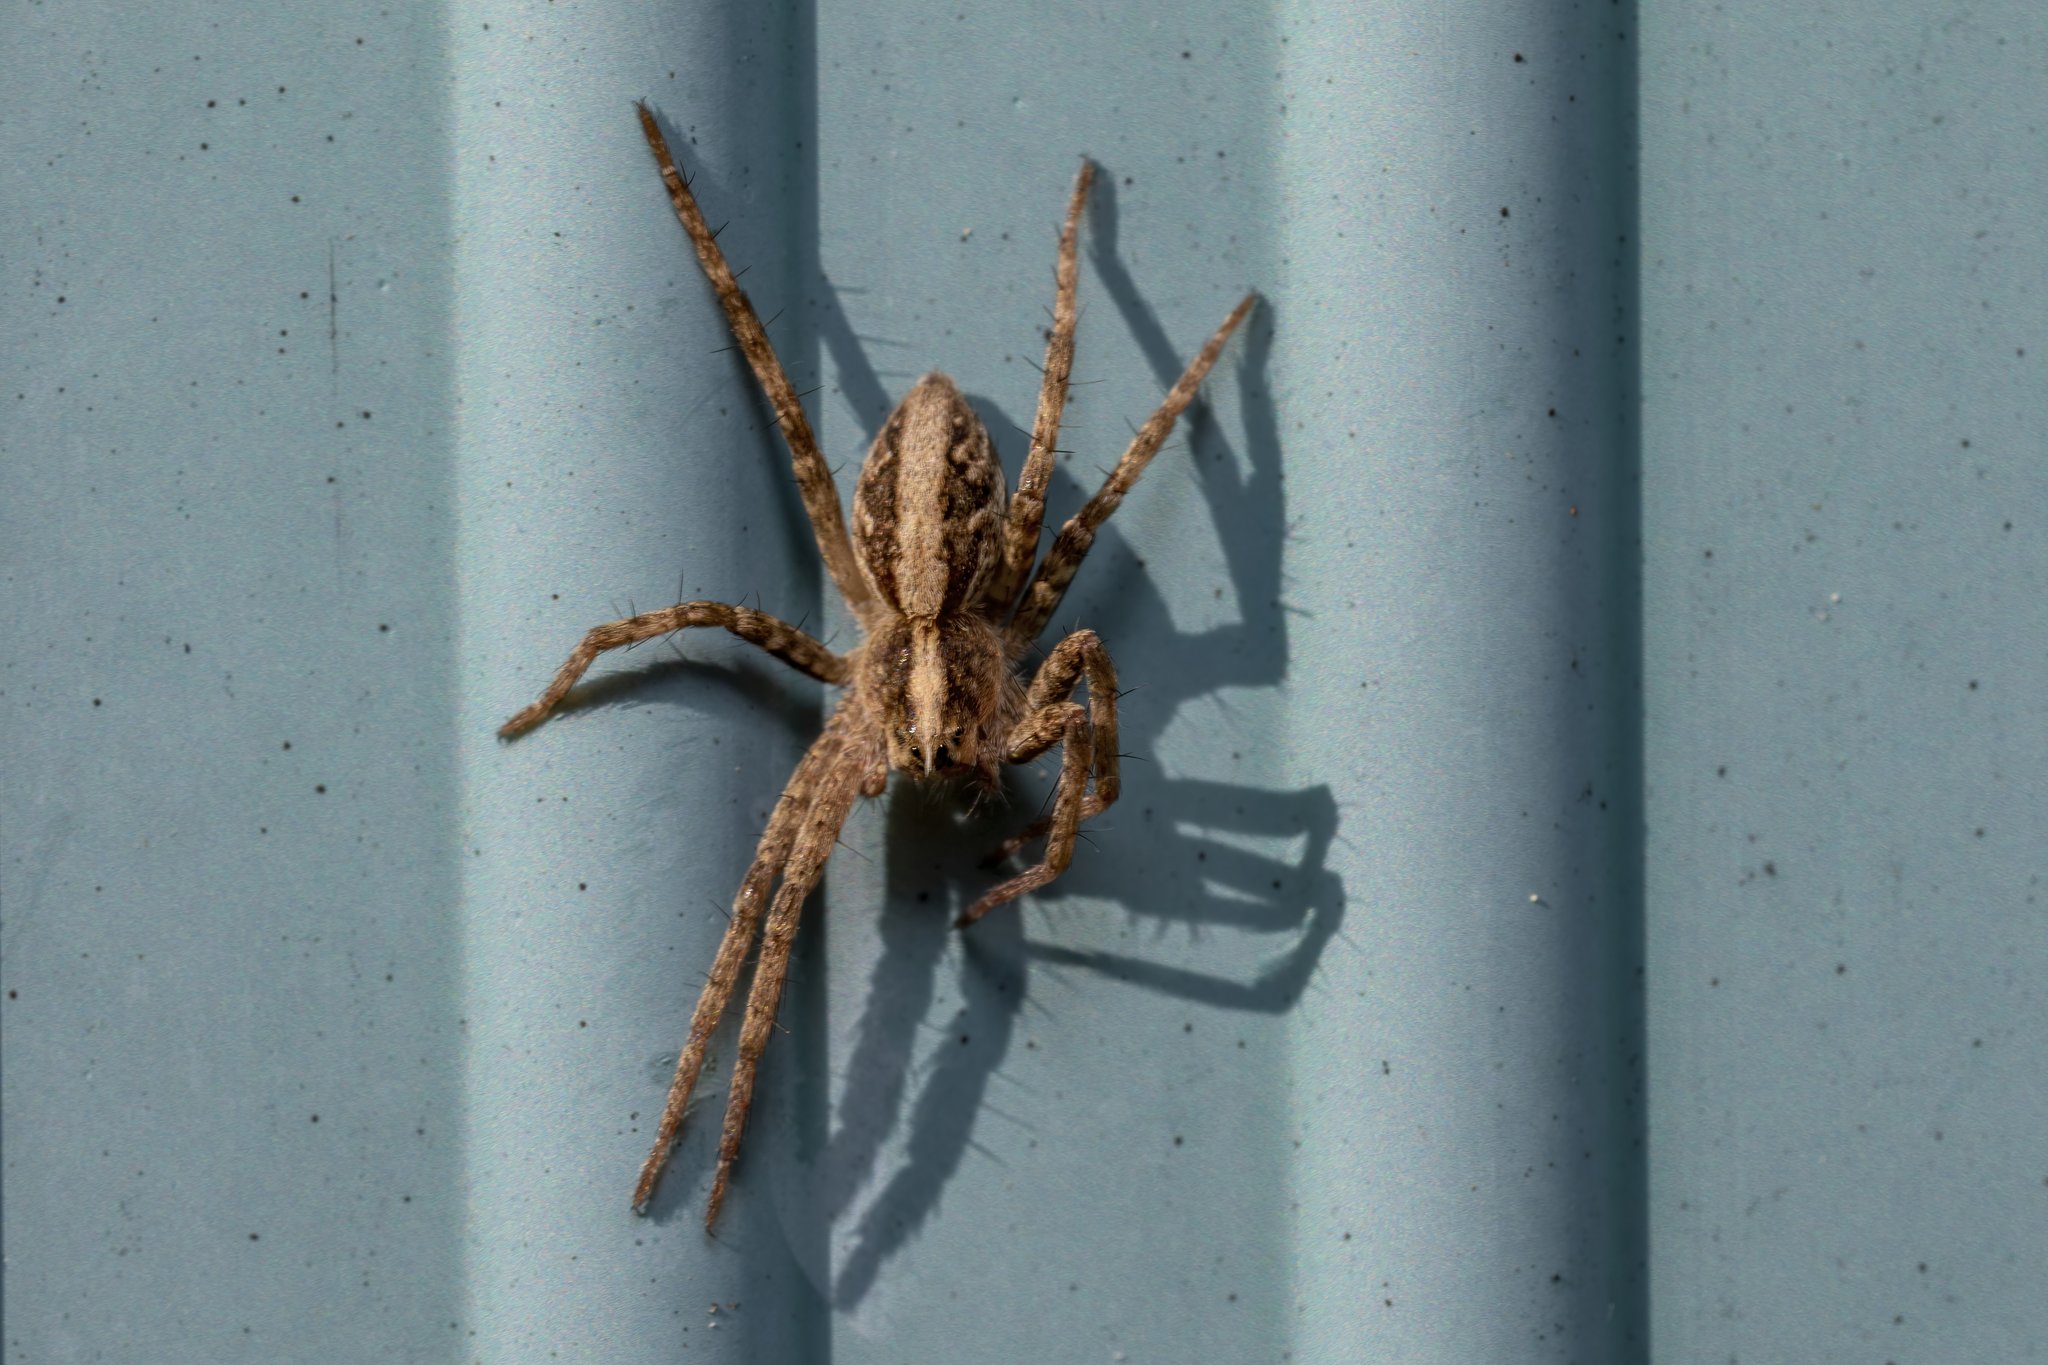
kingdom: Animalia
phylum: Arthropoda
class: Arachnida
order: Araneae
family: Pisauridae
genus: Pisaura
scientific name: Pisaura mirabilis
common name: Tent spider
